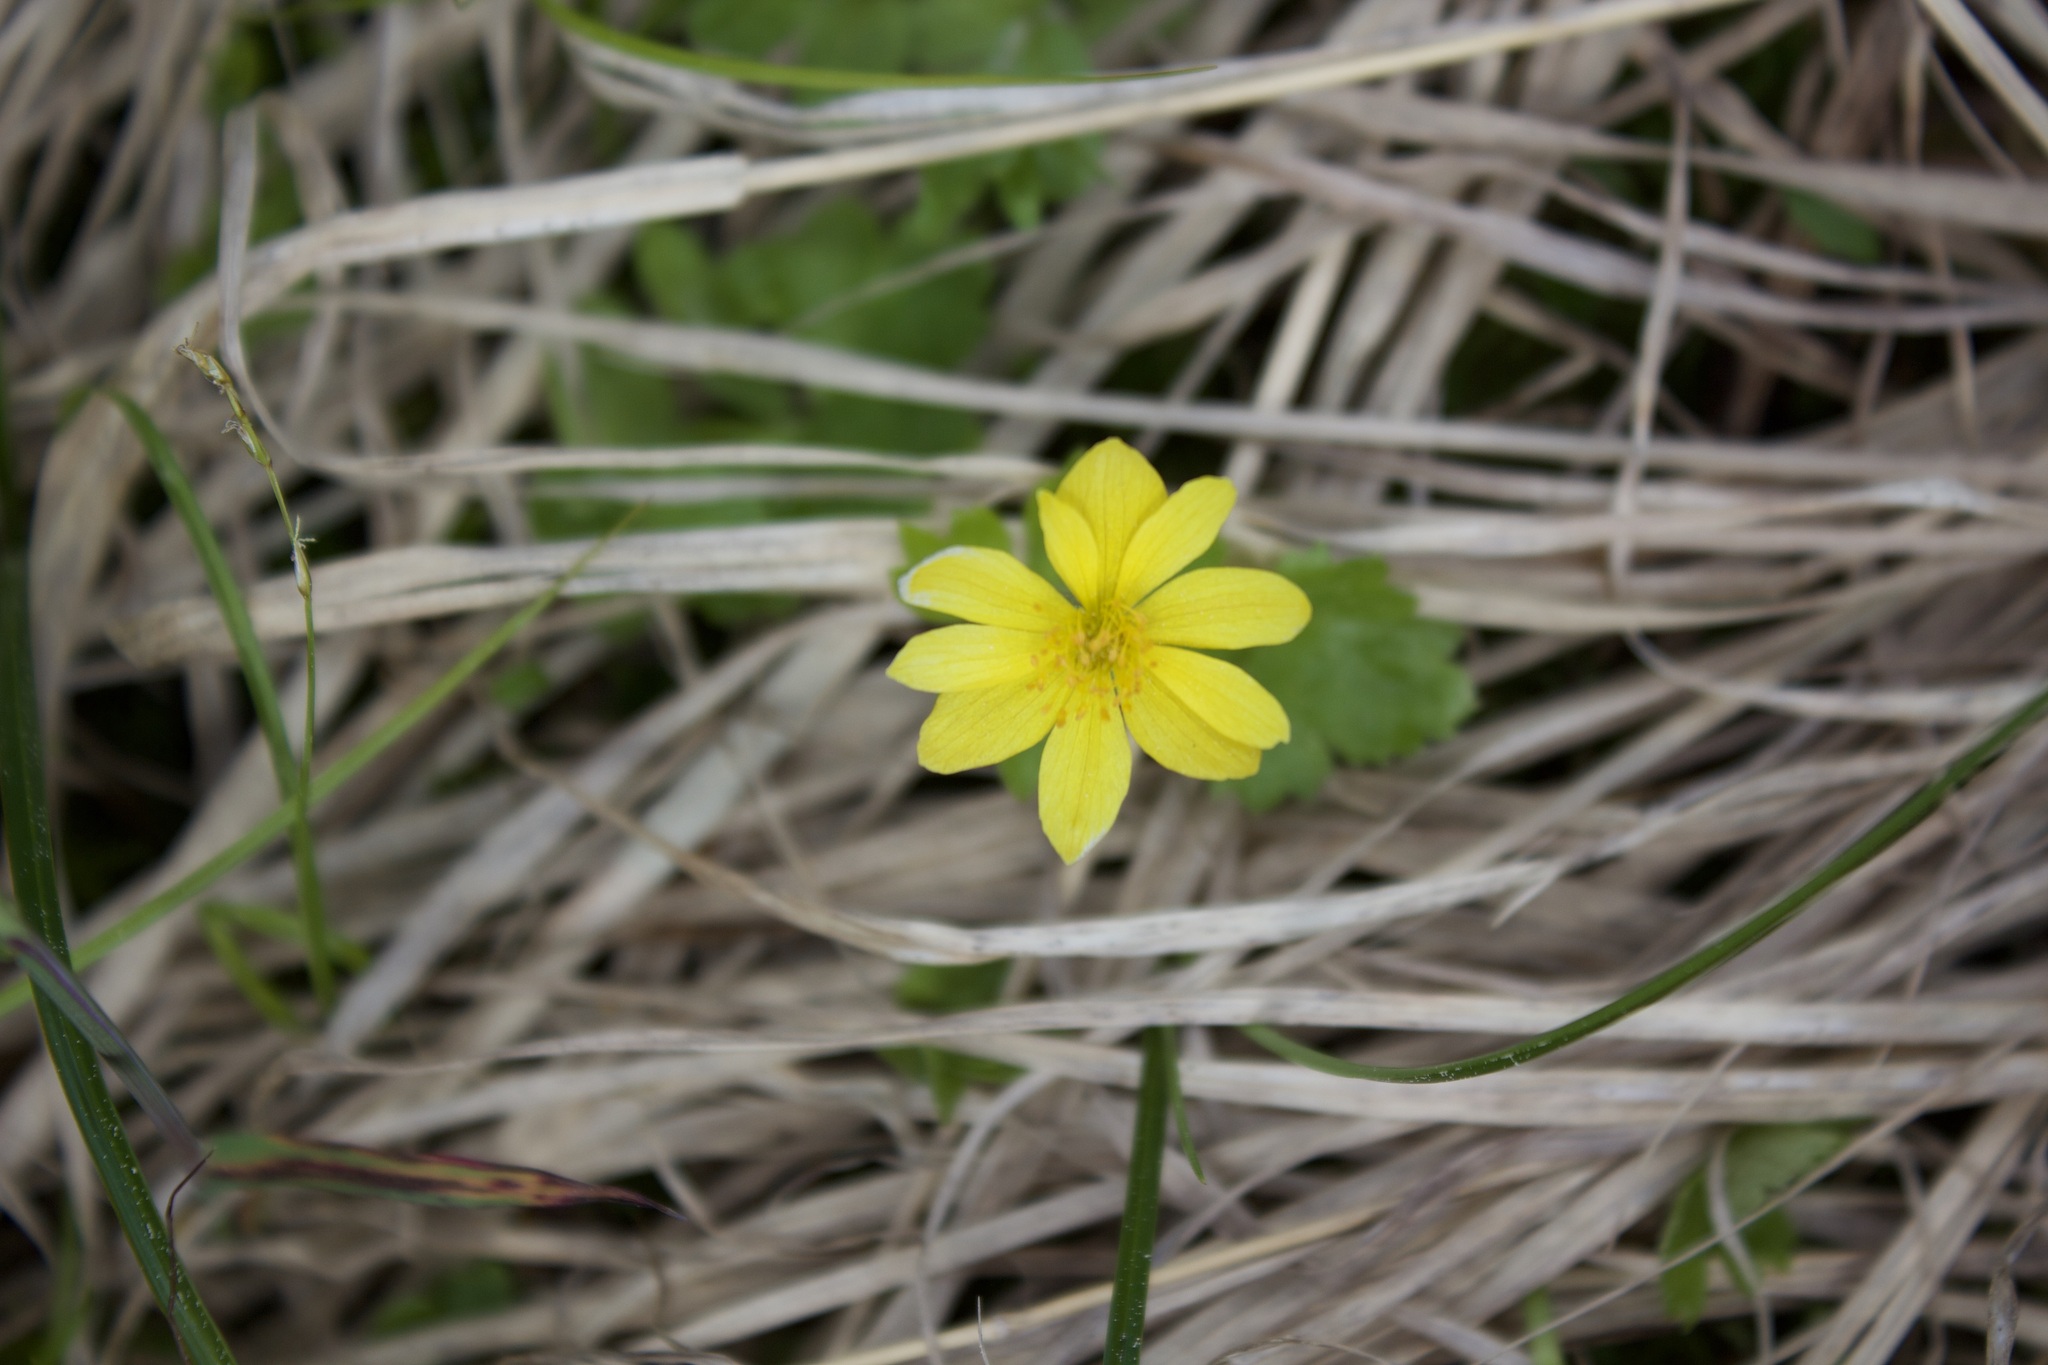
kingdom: Plantae
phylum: Tracheophyta
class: Magnoliopsida
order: Ranunculales
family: Ranunculaceae
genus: Anemonastrum
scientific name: Anemonastrum richardsonii
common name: Richardson's anemone
